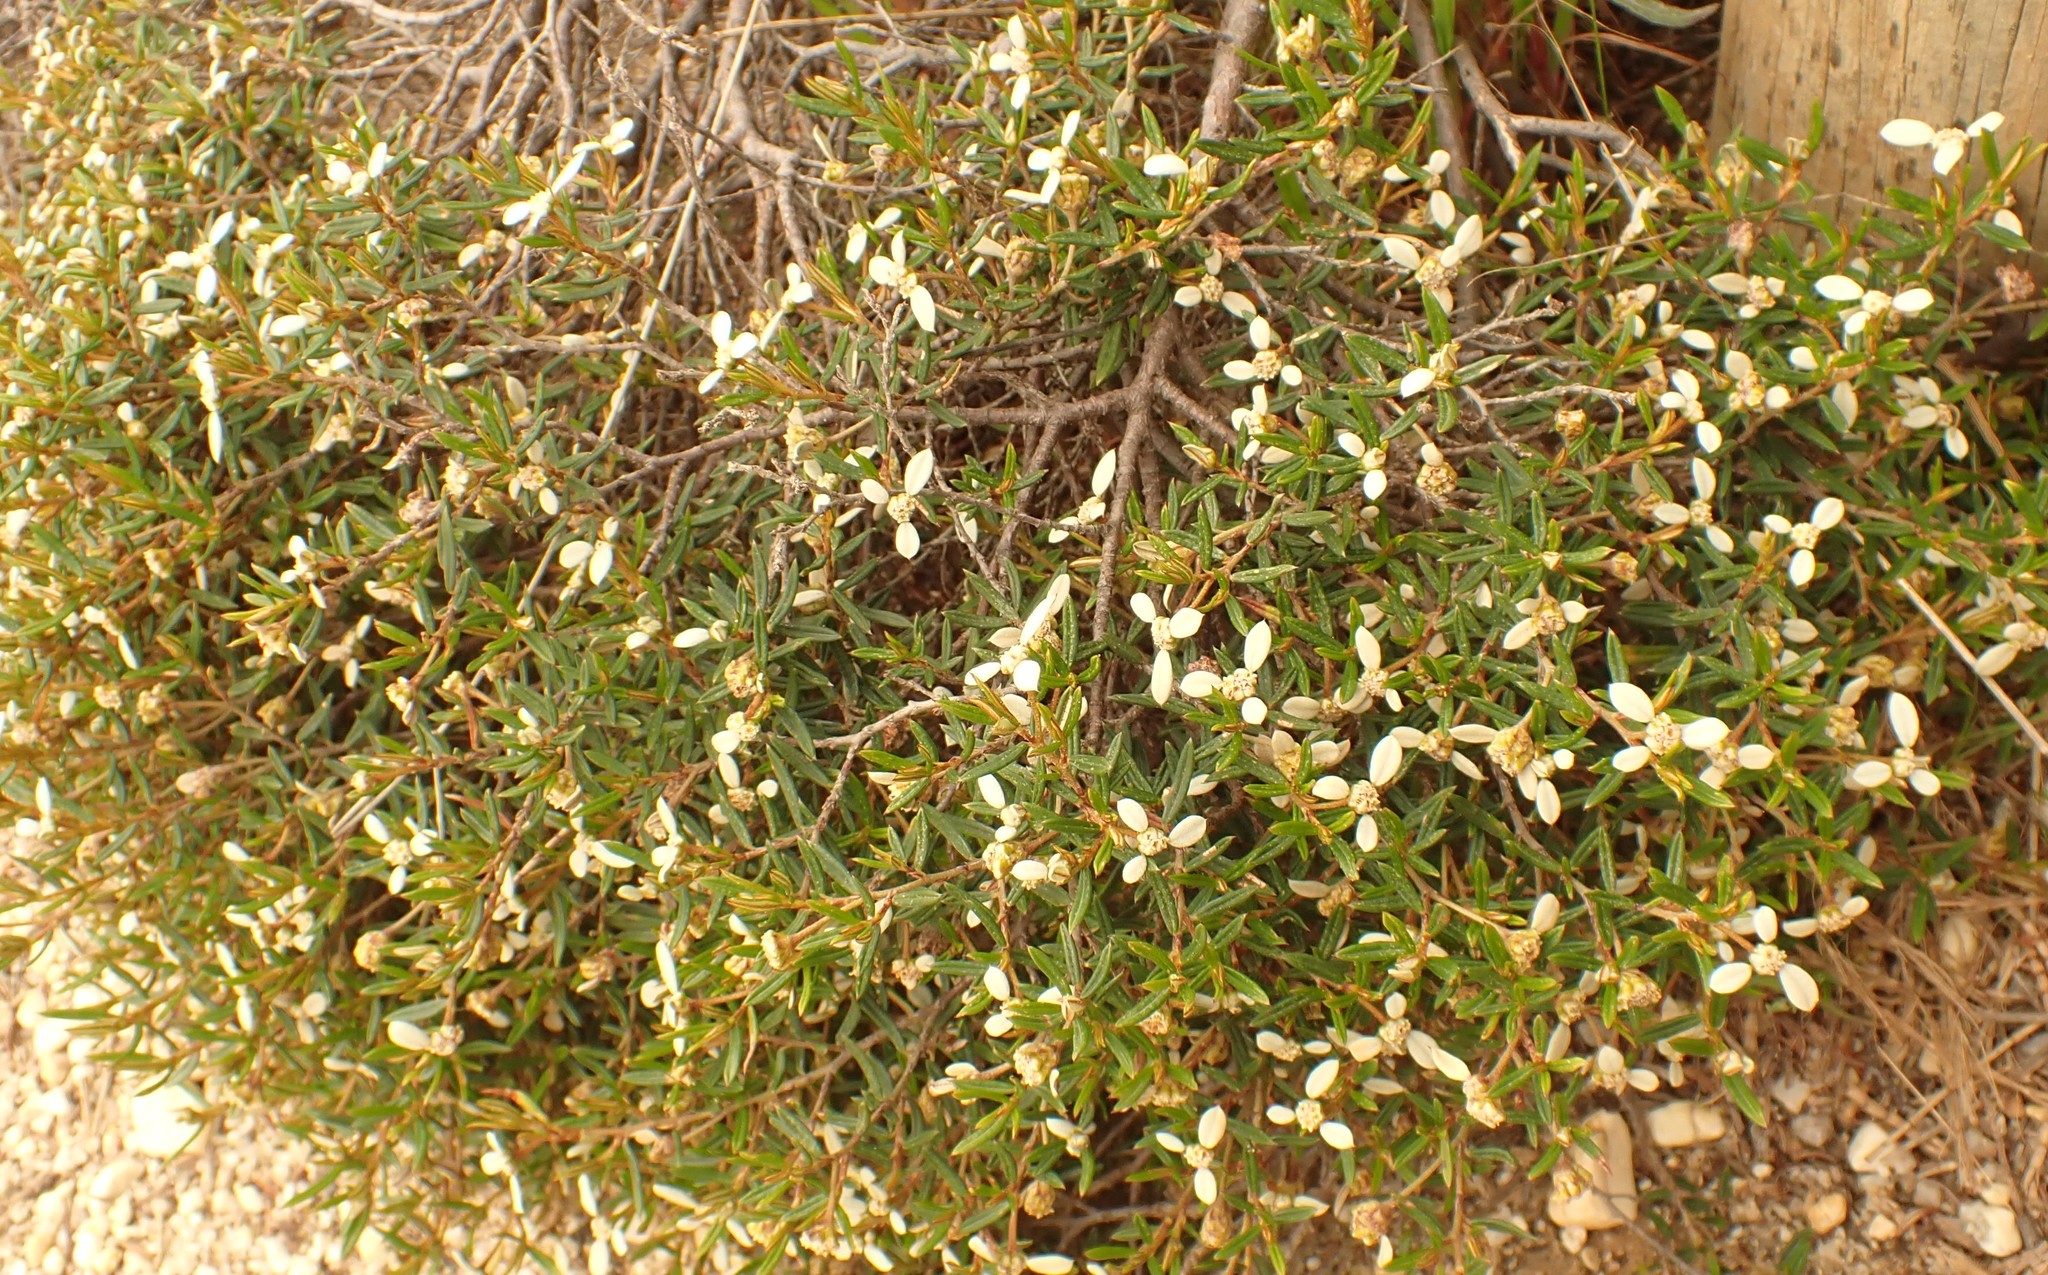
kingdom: Plantae
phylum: Tracheophyta
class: Magnoliopsida
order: Rosales
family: Rhamnaceae
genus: Spyridium
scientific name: Spyridium vexilliferum
